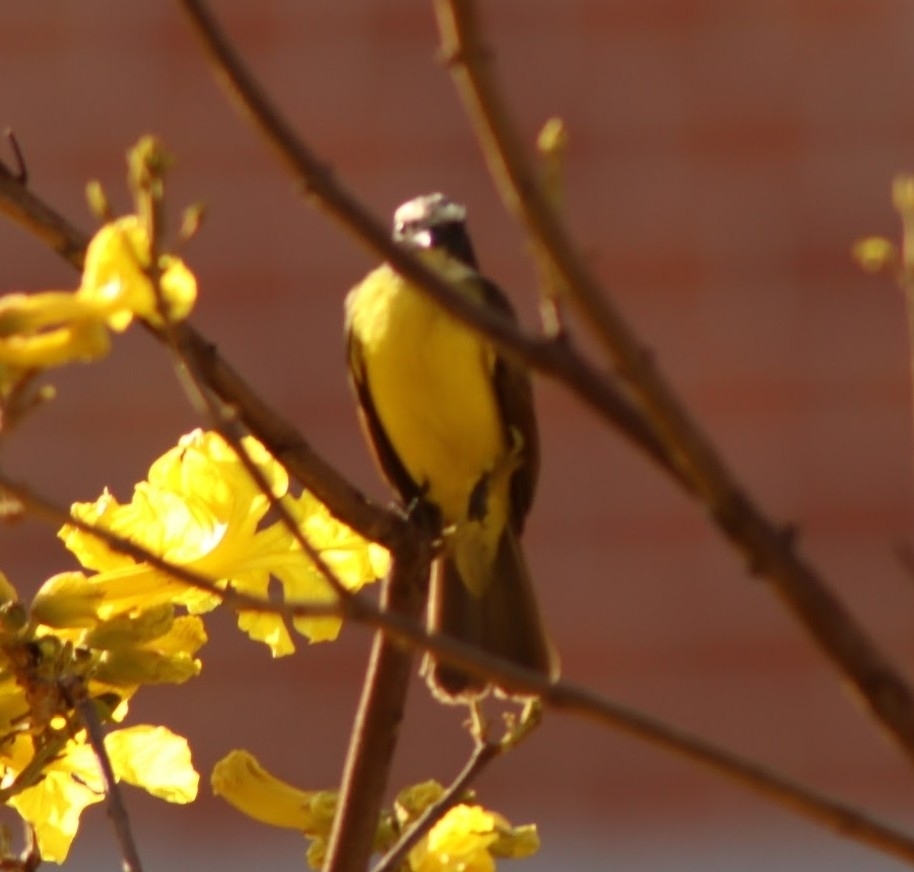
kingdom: Animalia
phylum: Chordata
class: Aves
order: Passeriformes
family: Tyrannidae
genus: Myiozetetes
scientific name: Myiozetetes cayanensis
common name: Rusty-margined flycatcher
